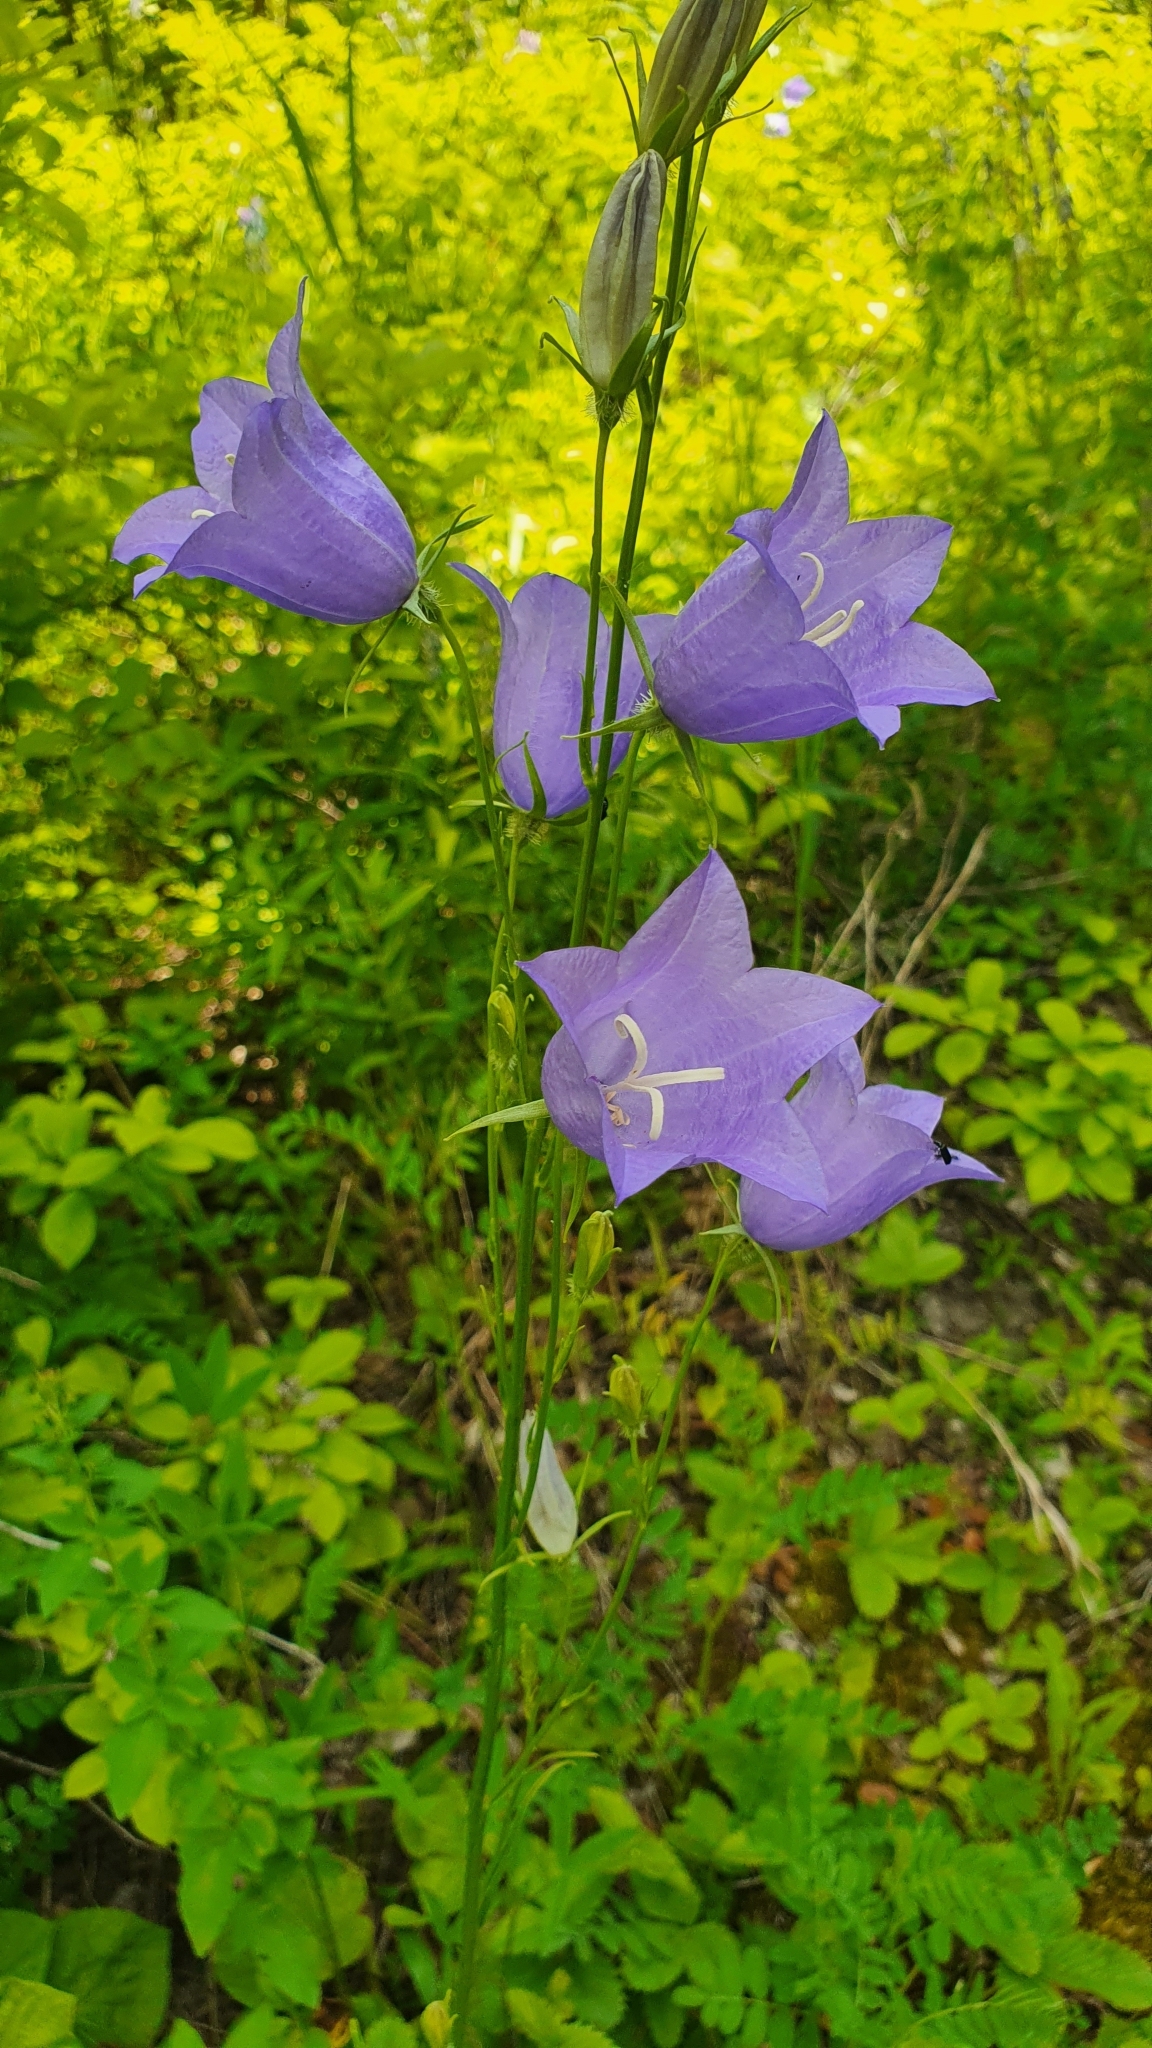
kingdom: Plantae
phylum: Tracheophyta
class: Magnoliopsida
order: Asterales
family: Campanulaceae
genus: Campanula
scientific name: Campanula persicifolia
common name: Peach-leaved bellflower
